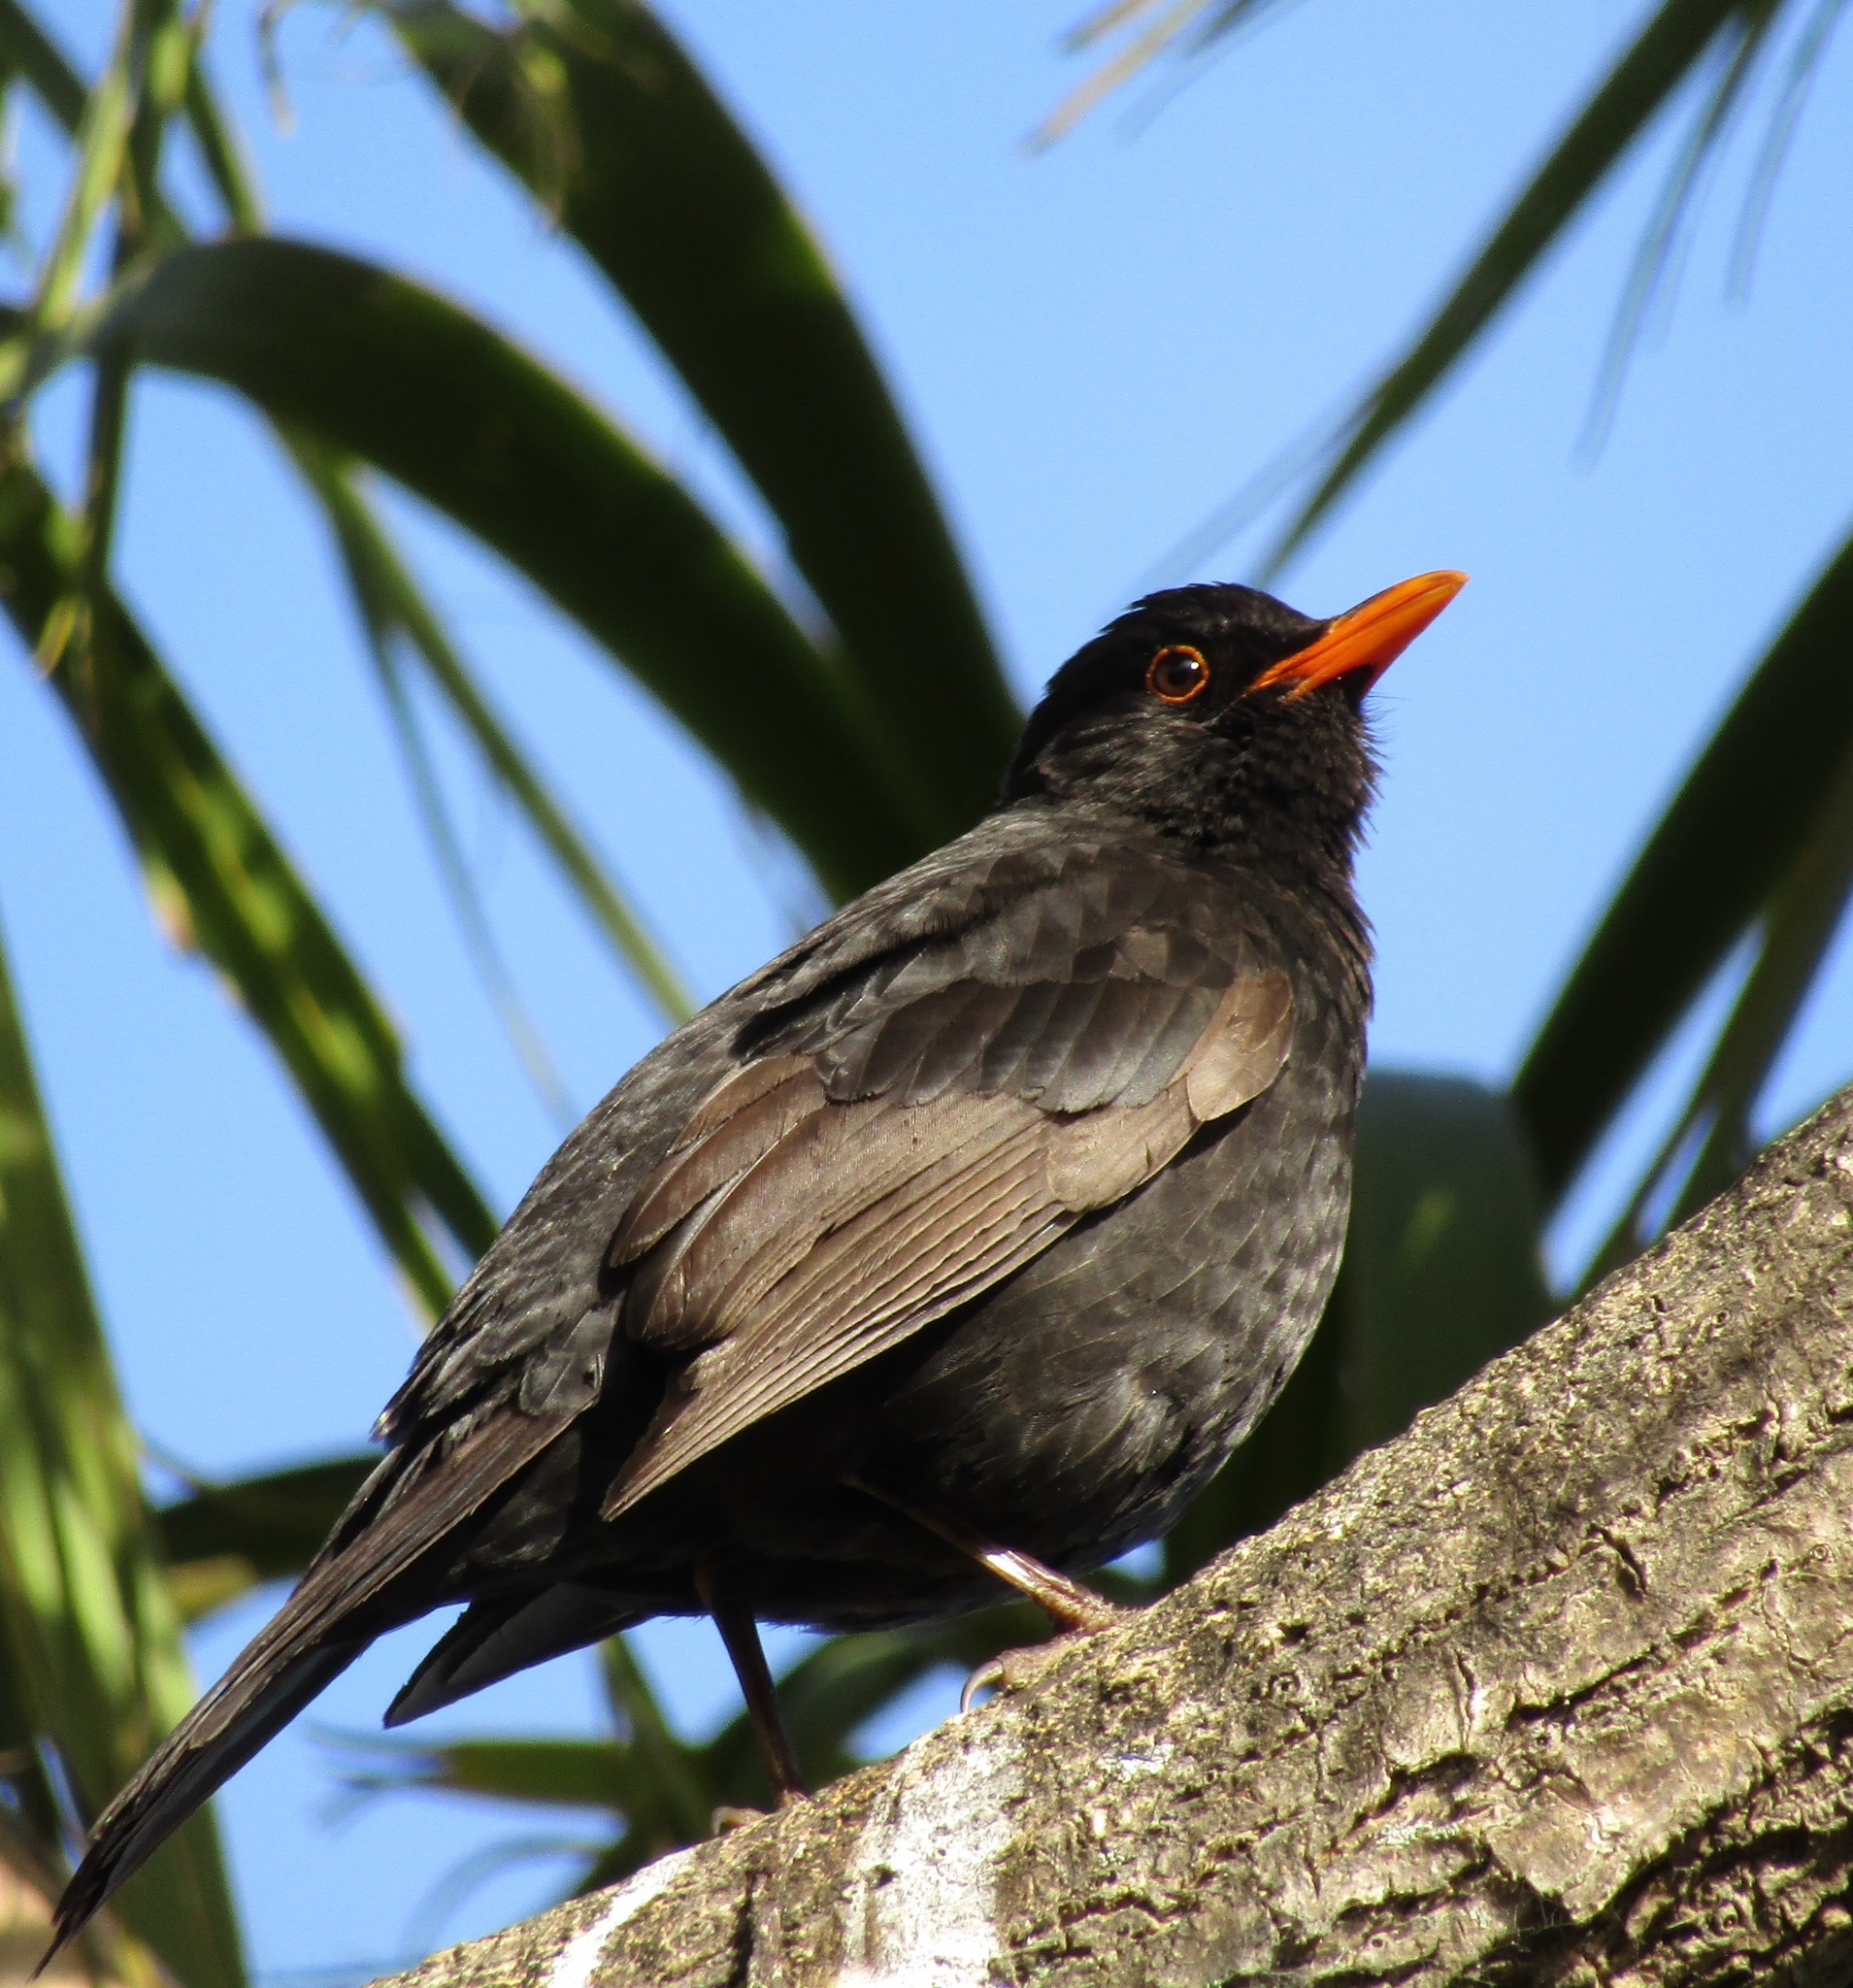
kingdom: Animalia
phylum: Chordata
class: Aves
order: Passeriformes
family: Turdidae
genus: Turdus
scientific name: Turdus merula
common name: Common blackbird
